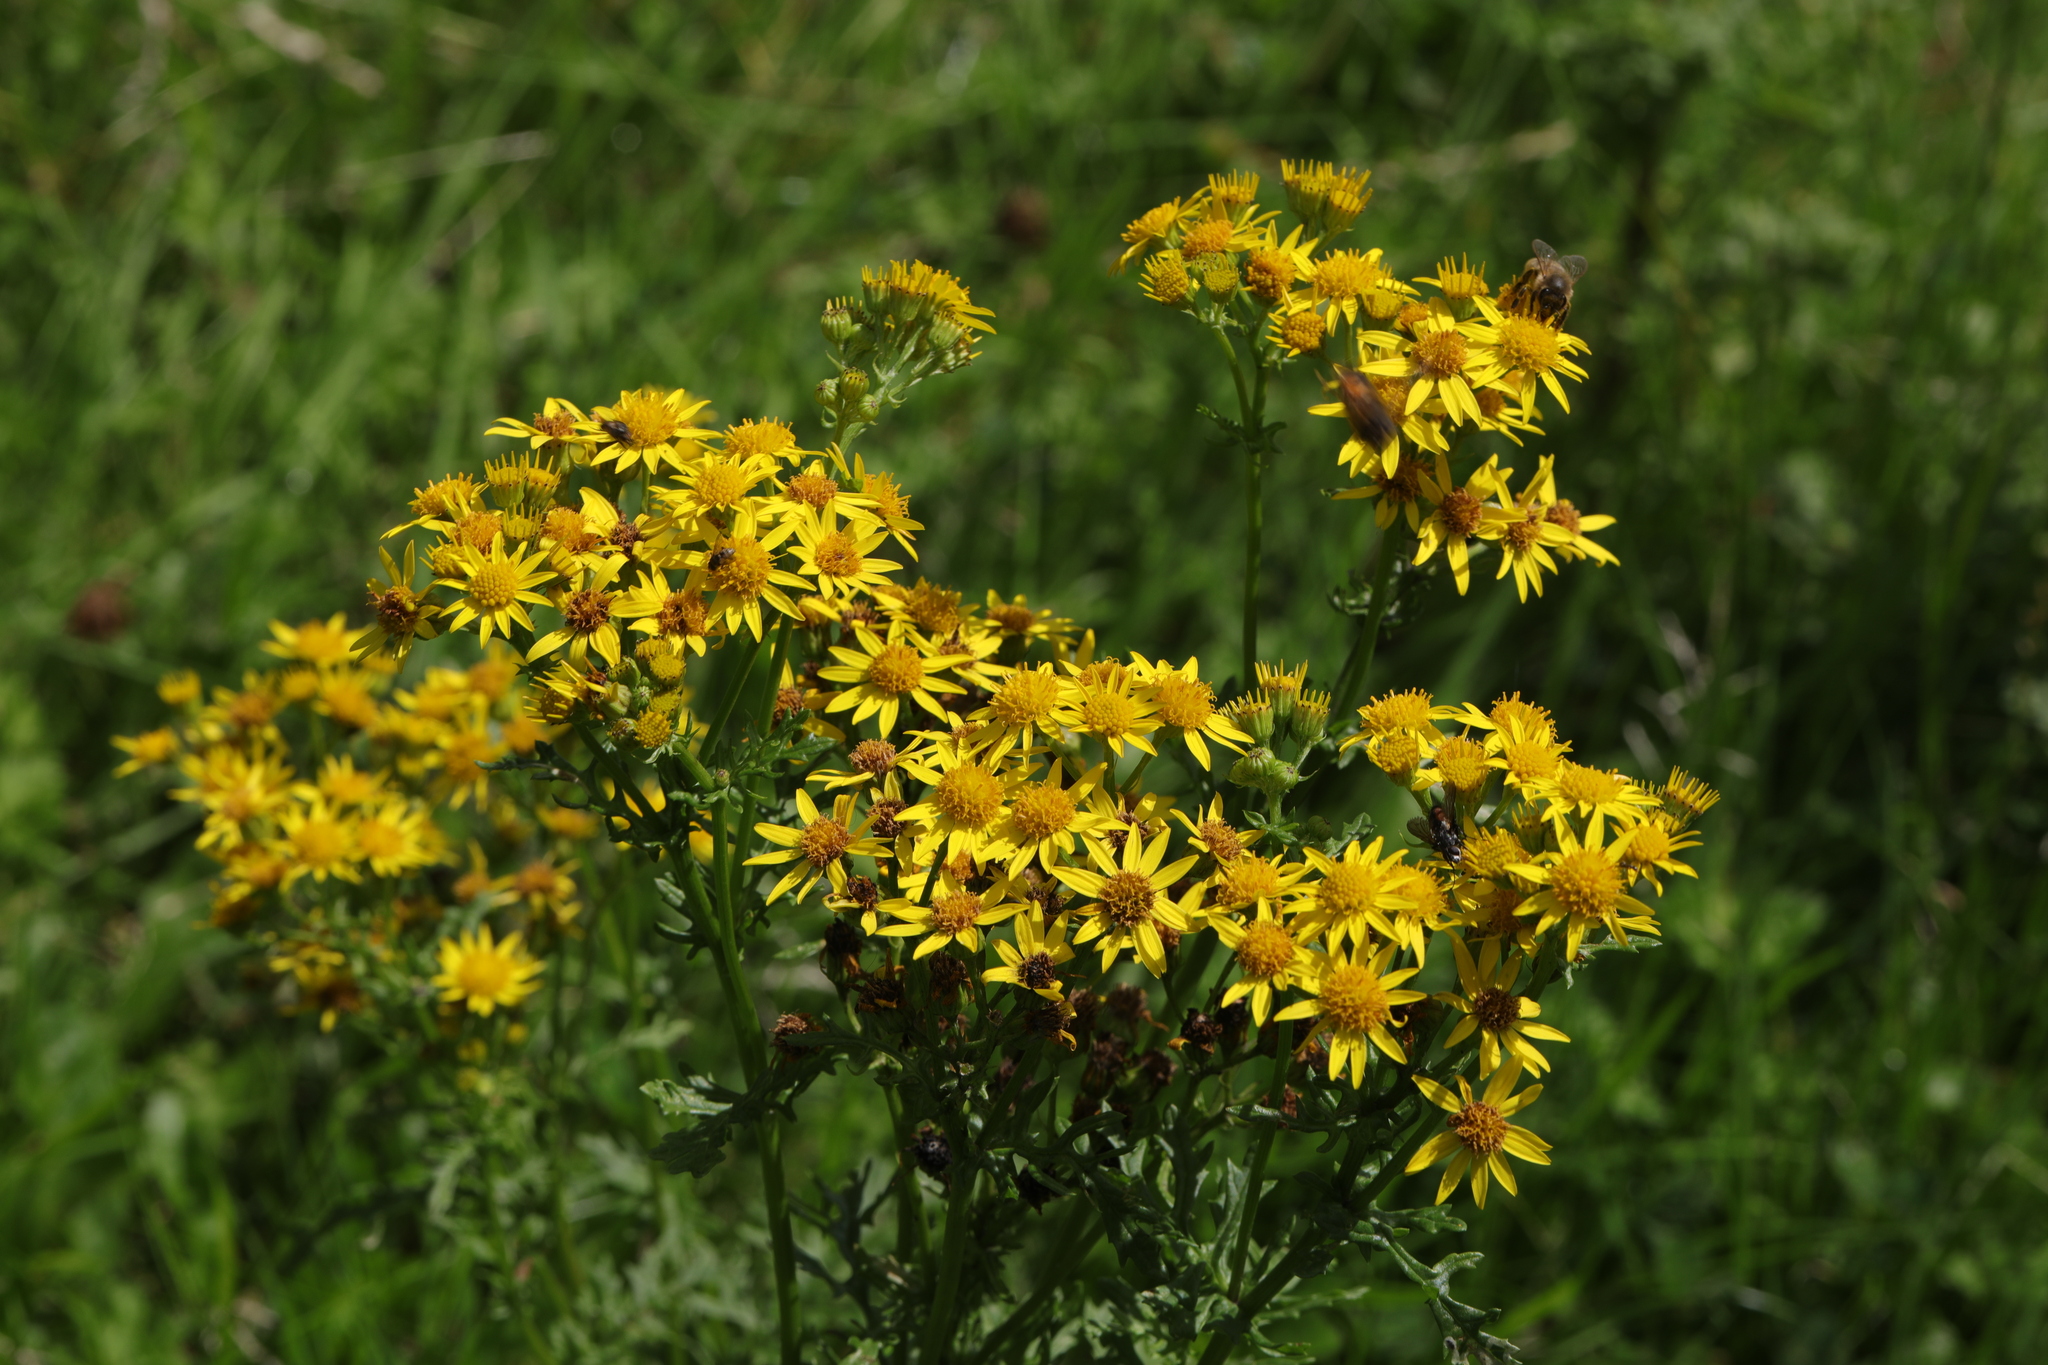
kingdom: Plantae
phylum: Tracheophyta
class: Magnoliopsida
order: Asterales
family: Asteraceae
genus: Jacobaea
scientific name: Jacobaea vulgaris
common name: Stinking willie
